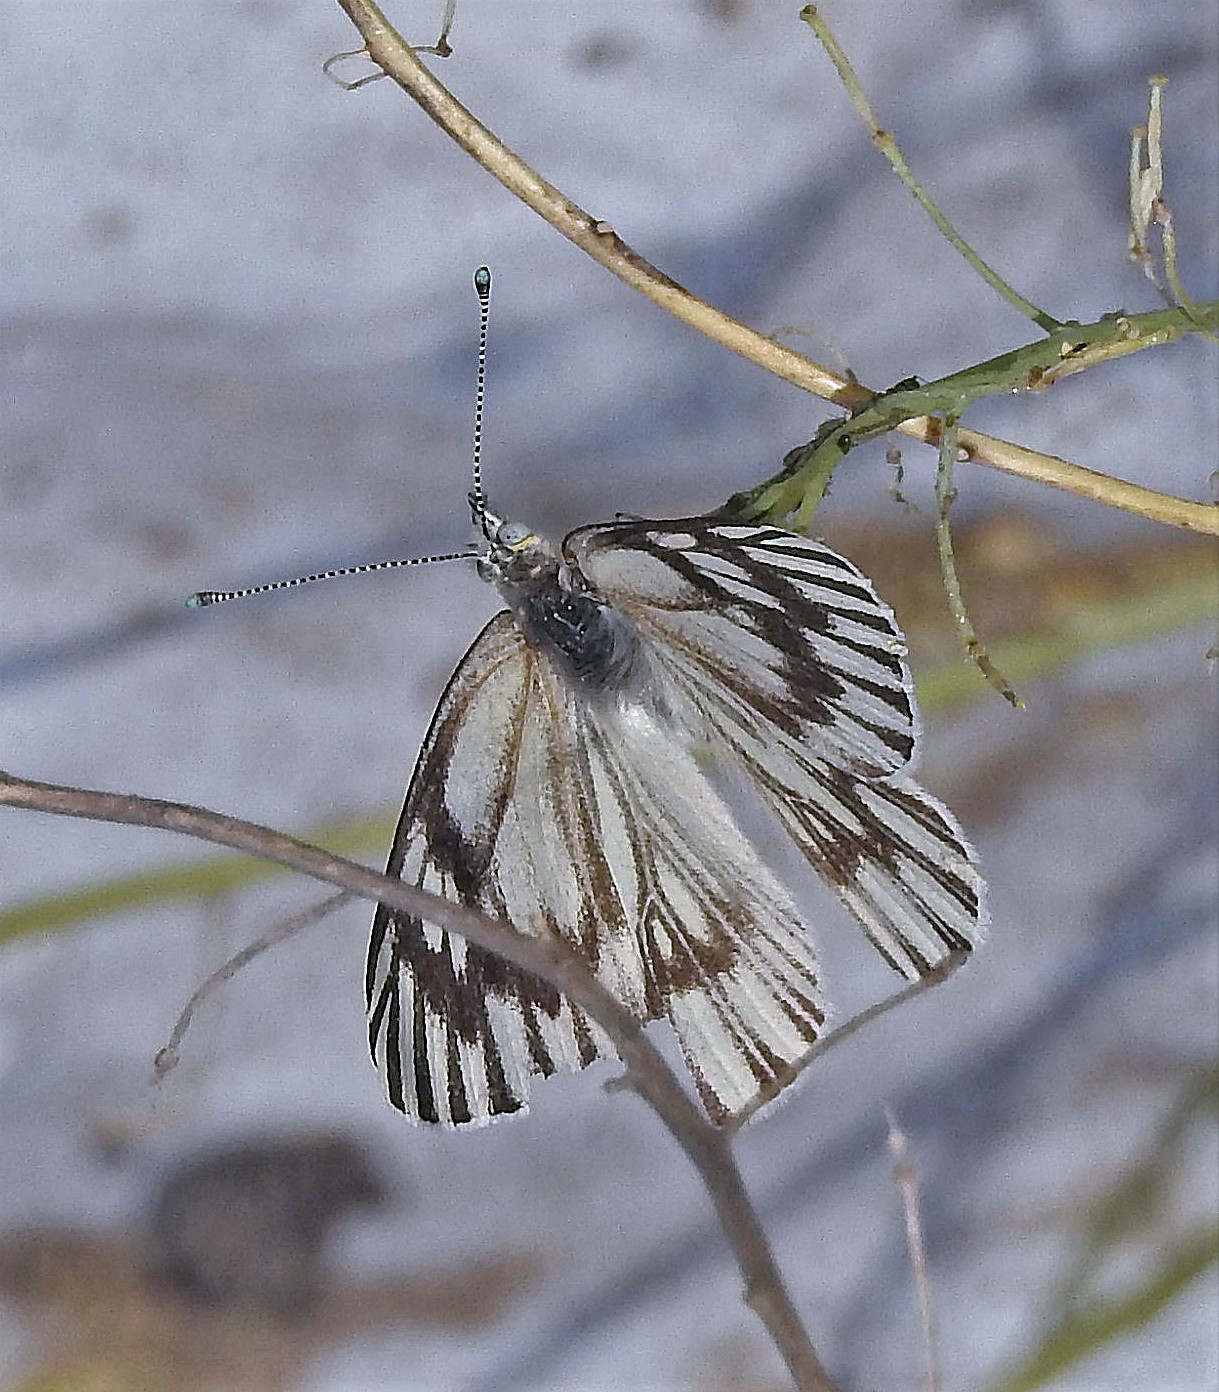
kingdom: Animalia
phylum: Arthropoda
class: Insecta
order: Lepidoptera
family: Pieridae
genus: Tatochila
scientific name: Tatochila mercedis
